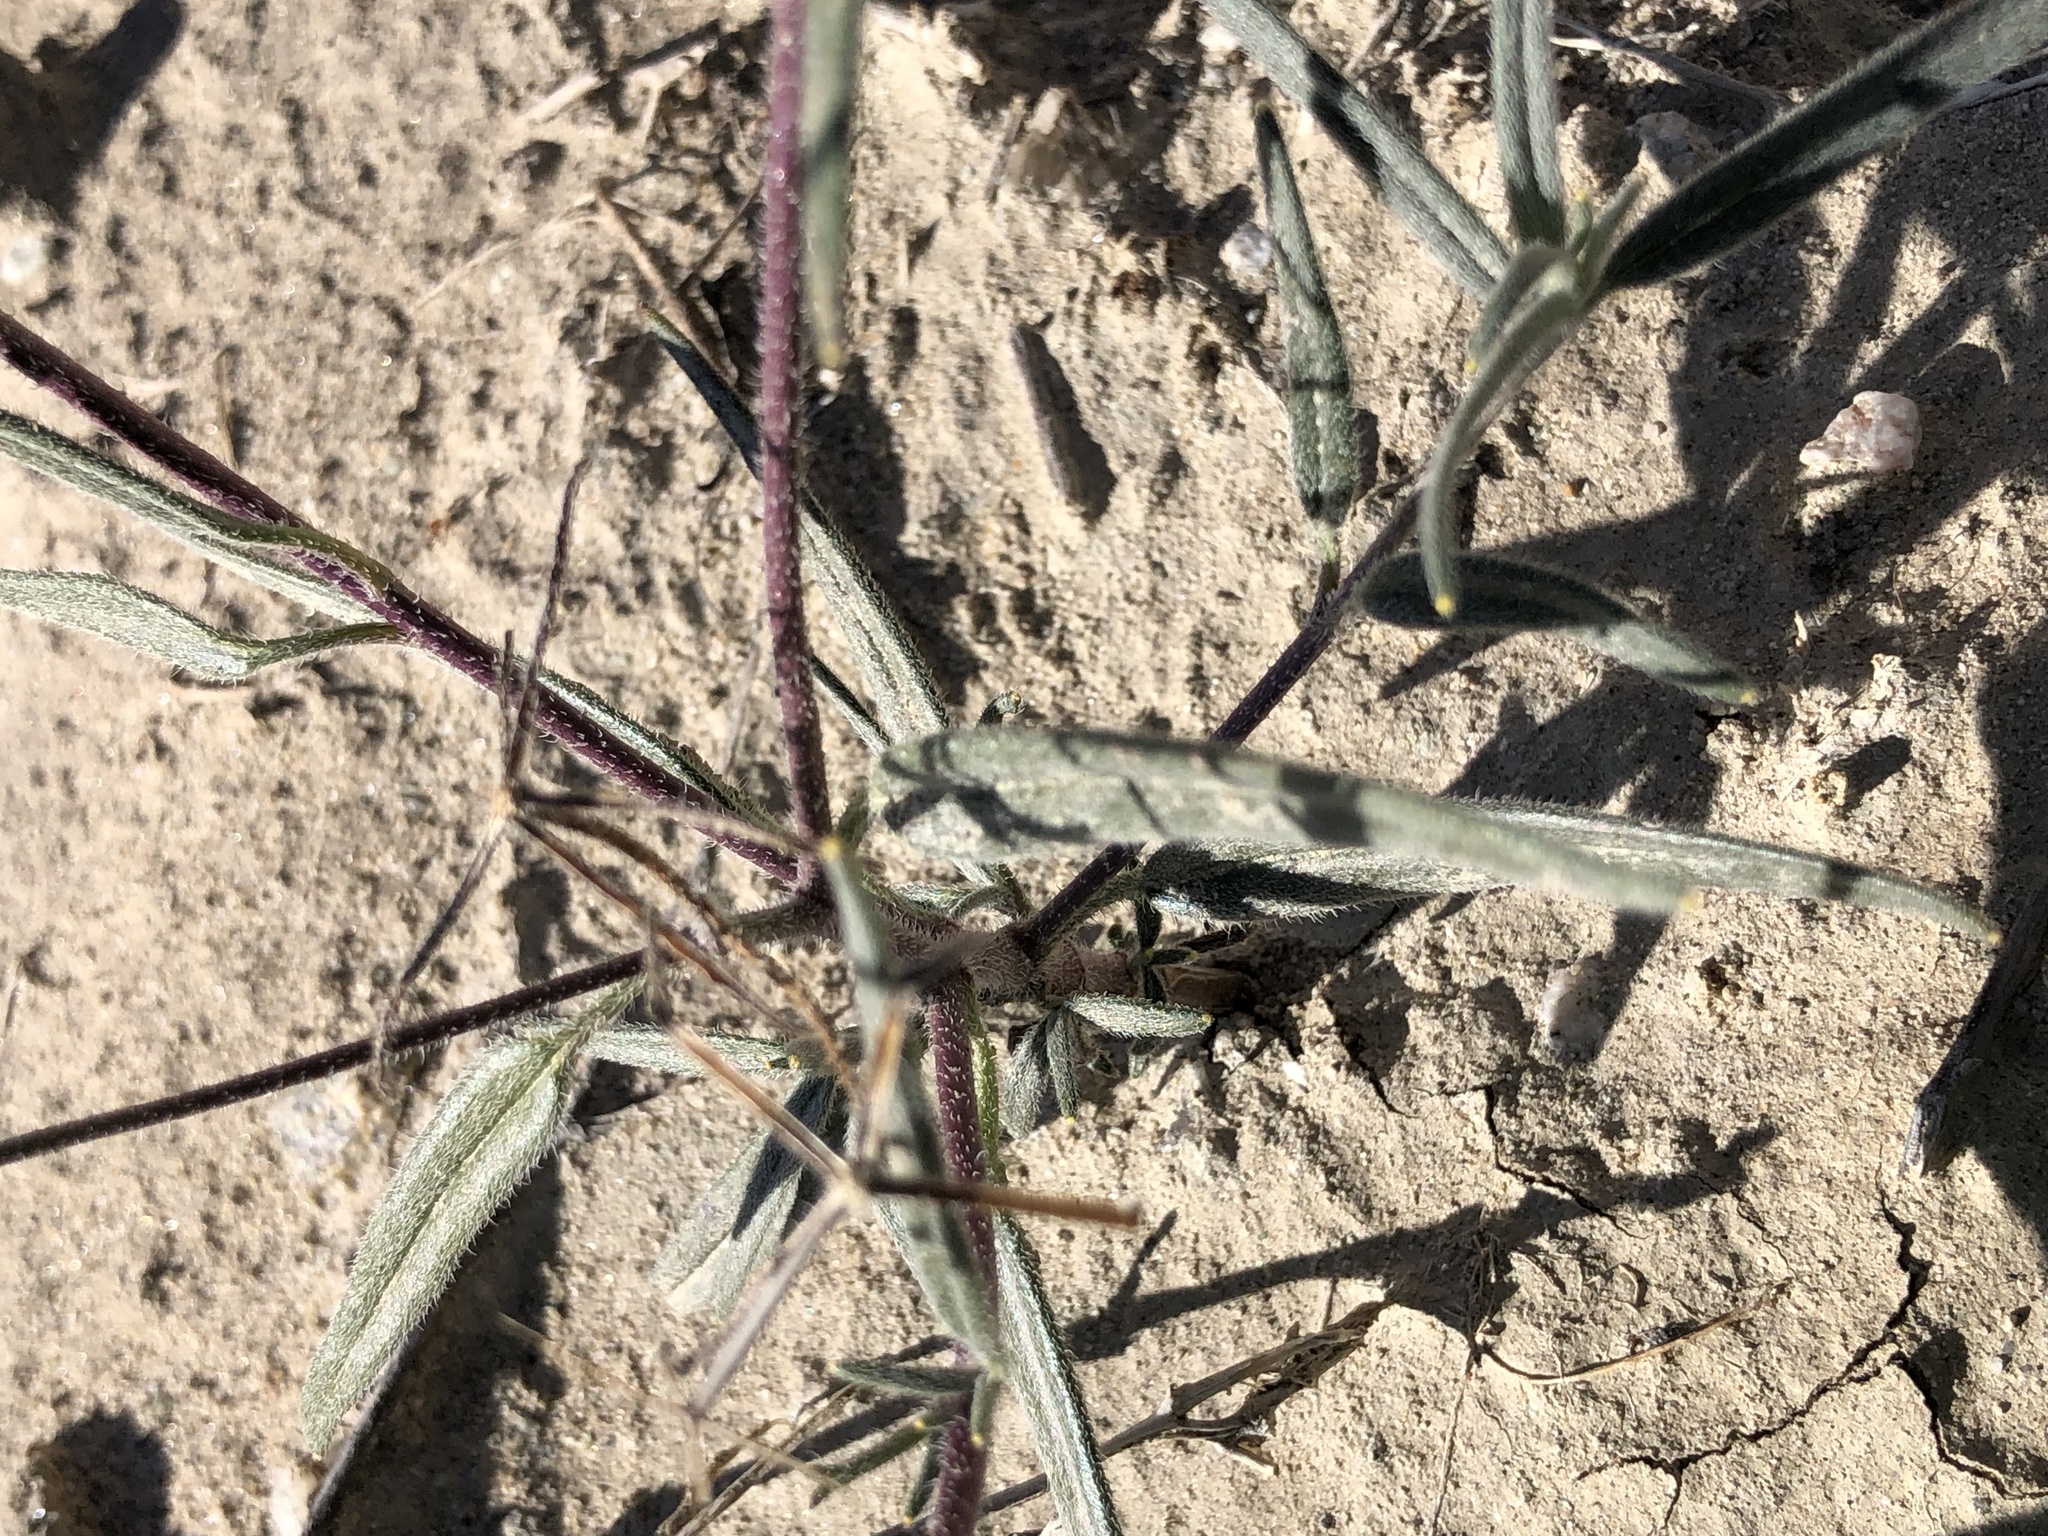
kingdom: Plantae
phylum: Tracheophyta
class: Magnoliopsida
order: Asterales
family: Asteraceae
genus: Palafoxia
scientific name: Palafoxia arida
